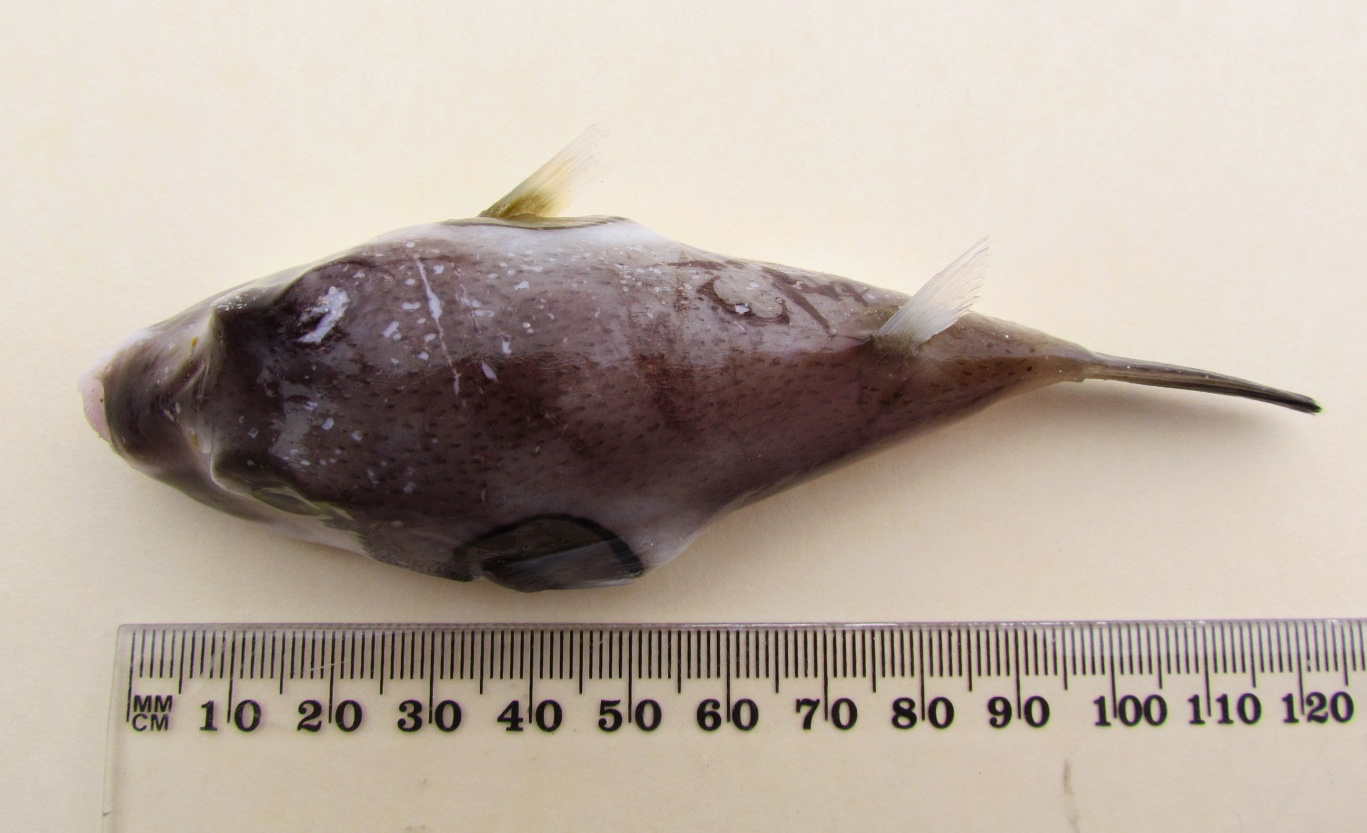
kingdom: Animalia
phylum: Chordata
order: Tetraodontiformes
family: Tetraodontidae
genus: Omegophora
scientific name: Omegophora armilla
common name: Ringed pufferfish
